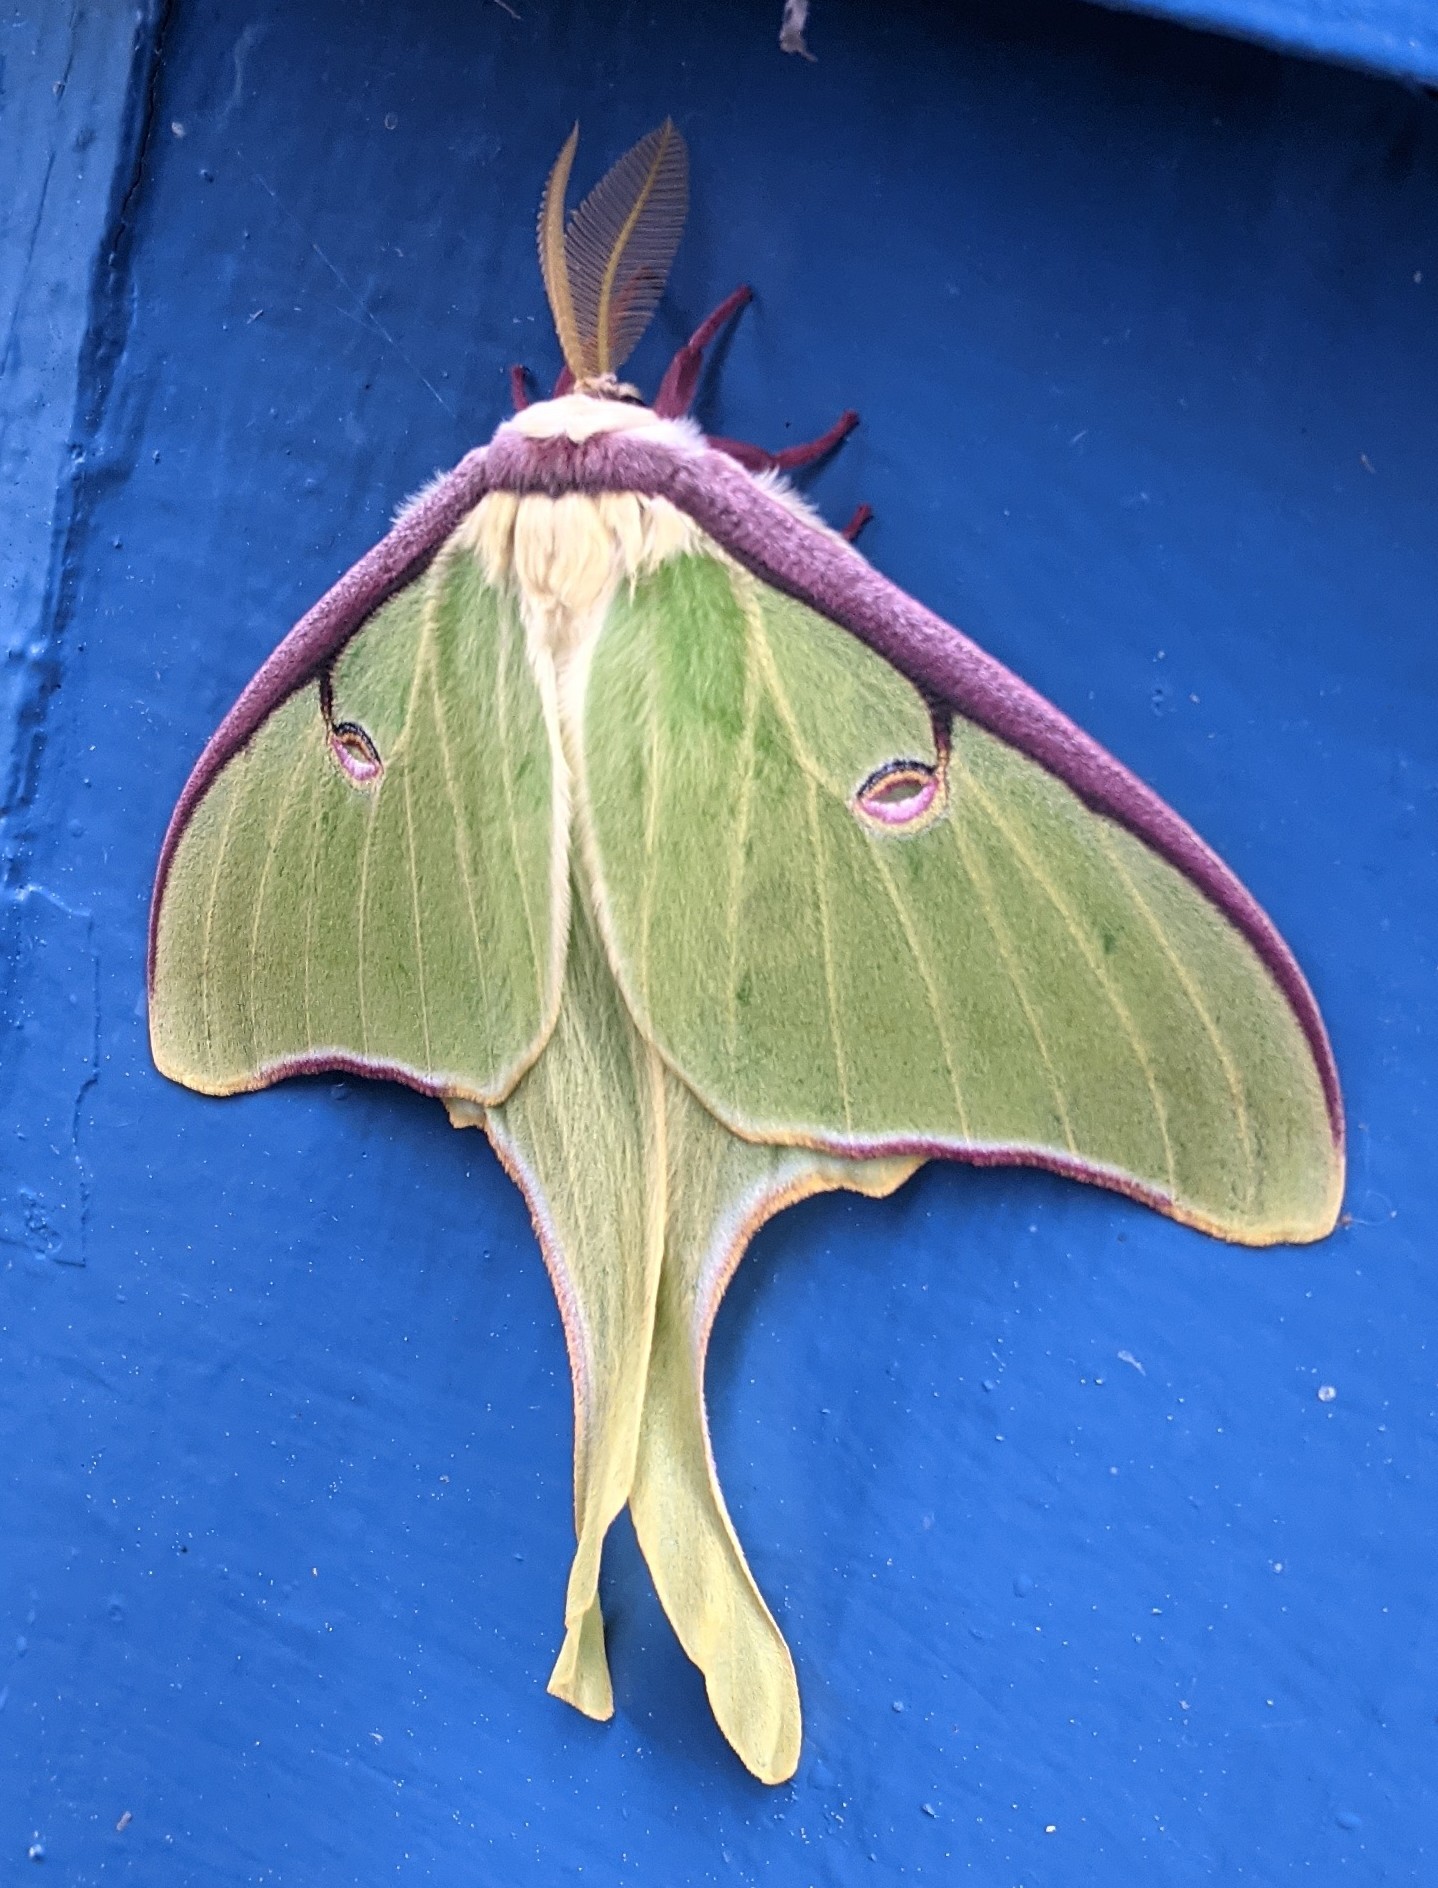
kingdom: Animalia
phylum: Arthropoda
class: Insecta
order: Lepidoptera
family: Saturniidae
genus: Actias
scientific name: Actias luna
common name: Luna moth
